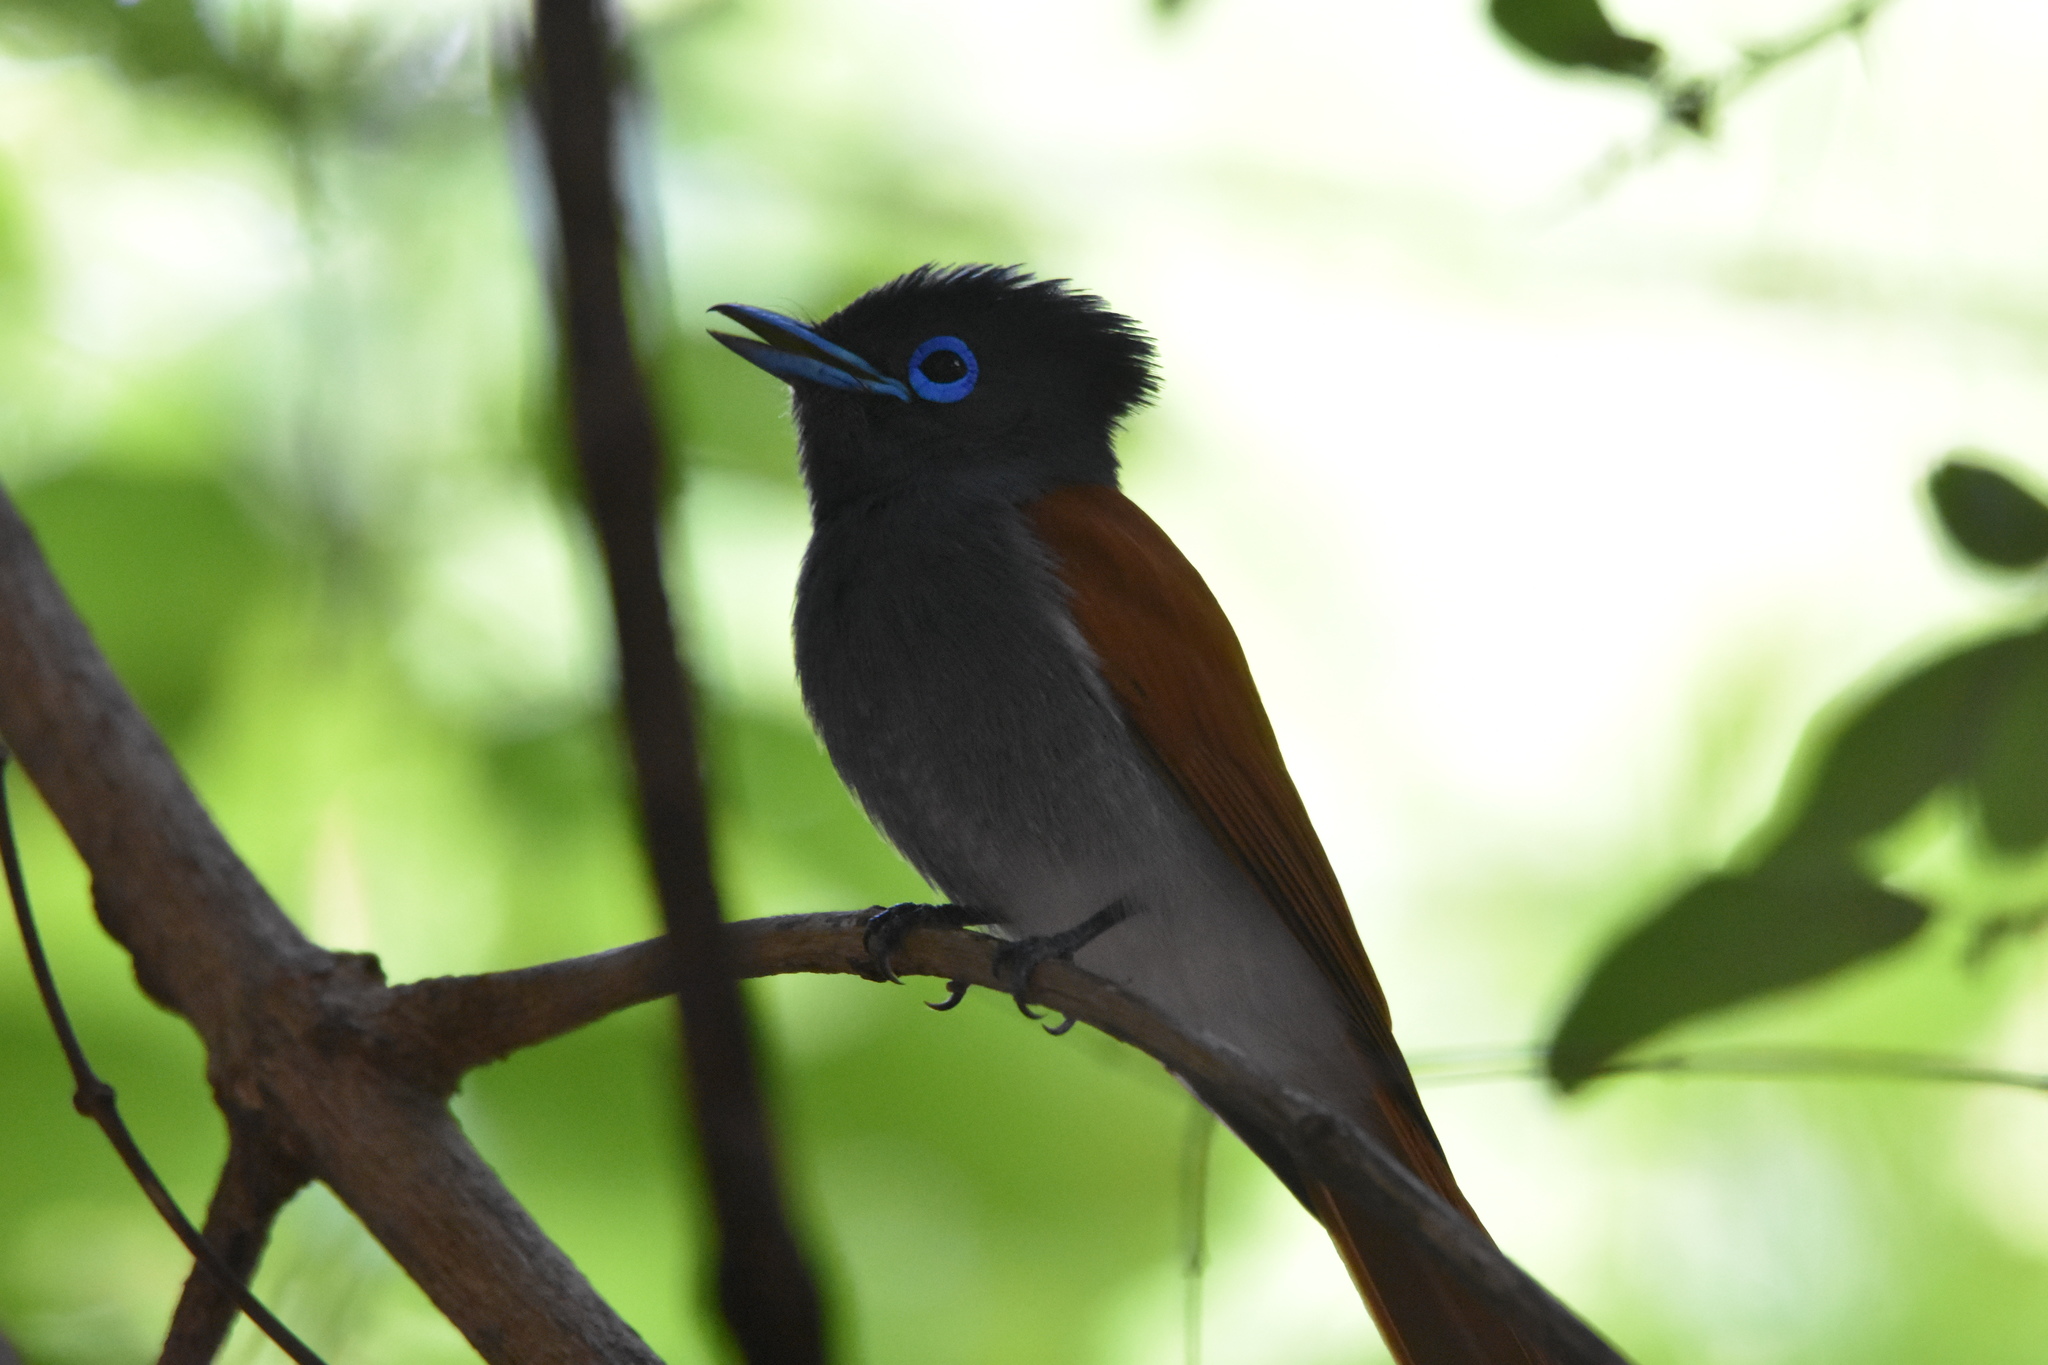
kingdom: Animalia
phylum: Chordata
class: Aves
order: Passeriformes
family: Monarchidae
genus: Terpsiphone
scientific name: Terpsiphone viridis
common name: African paradise flycatcher
